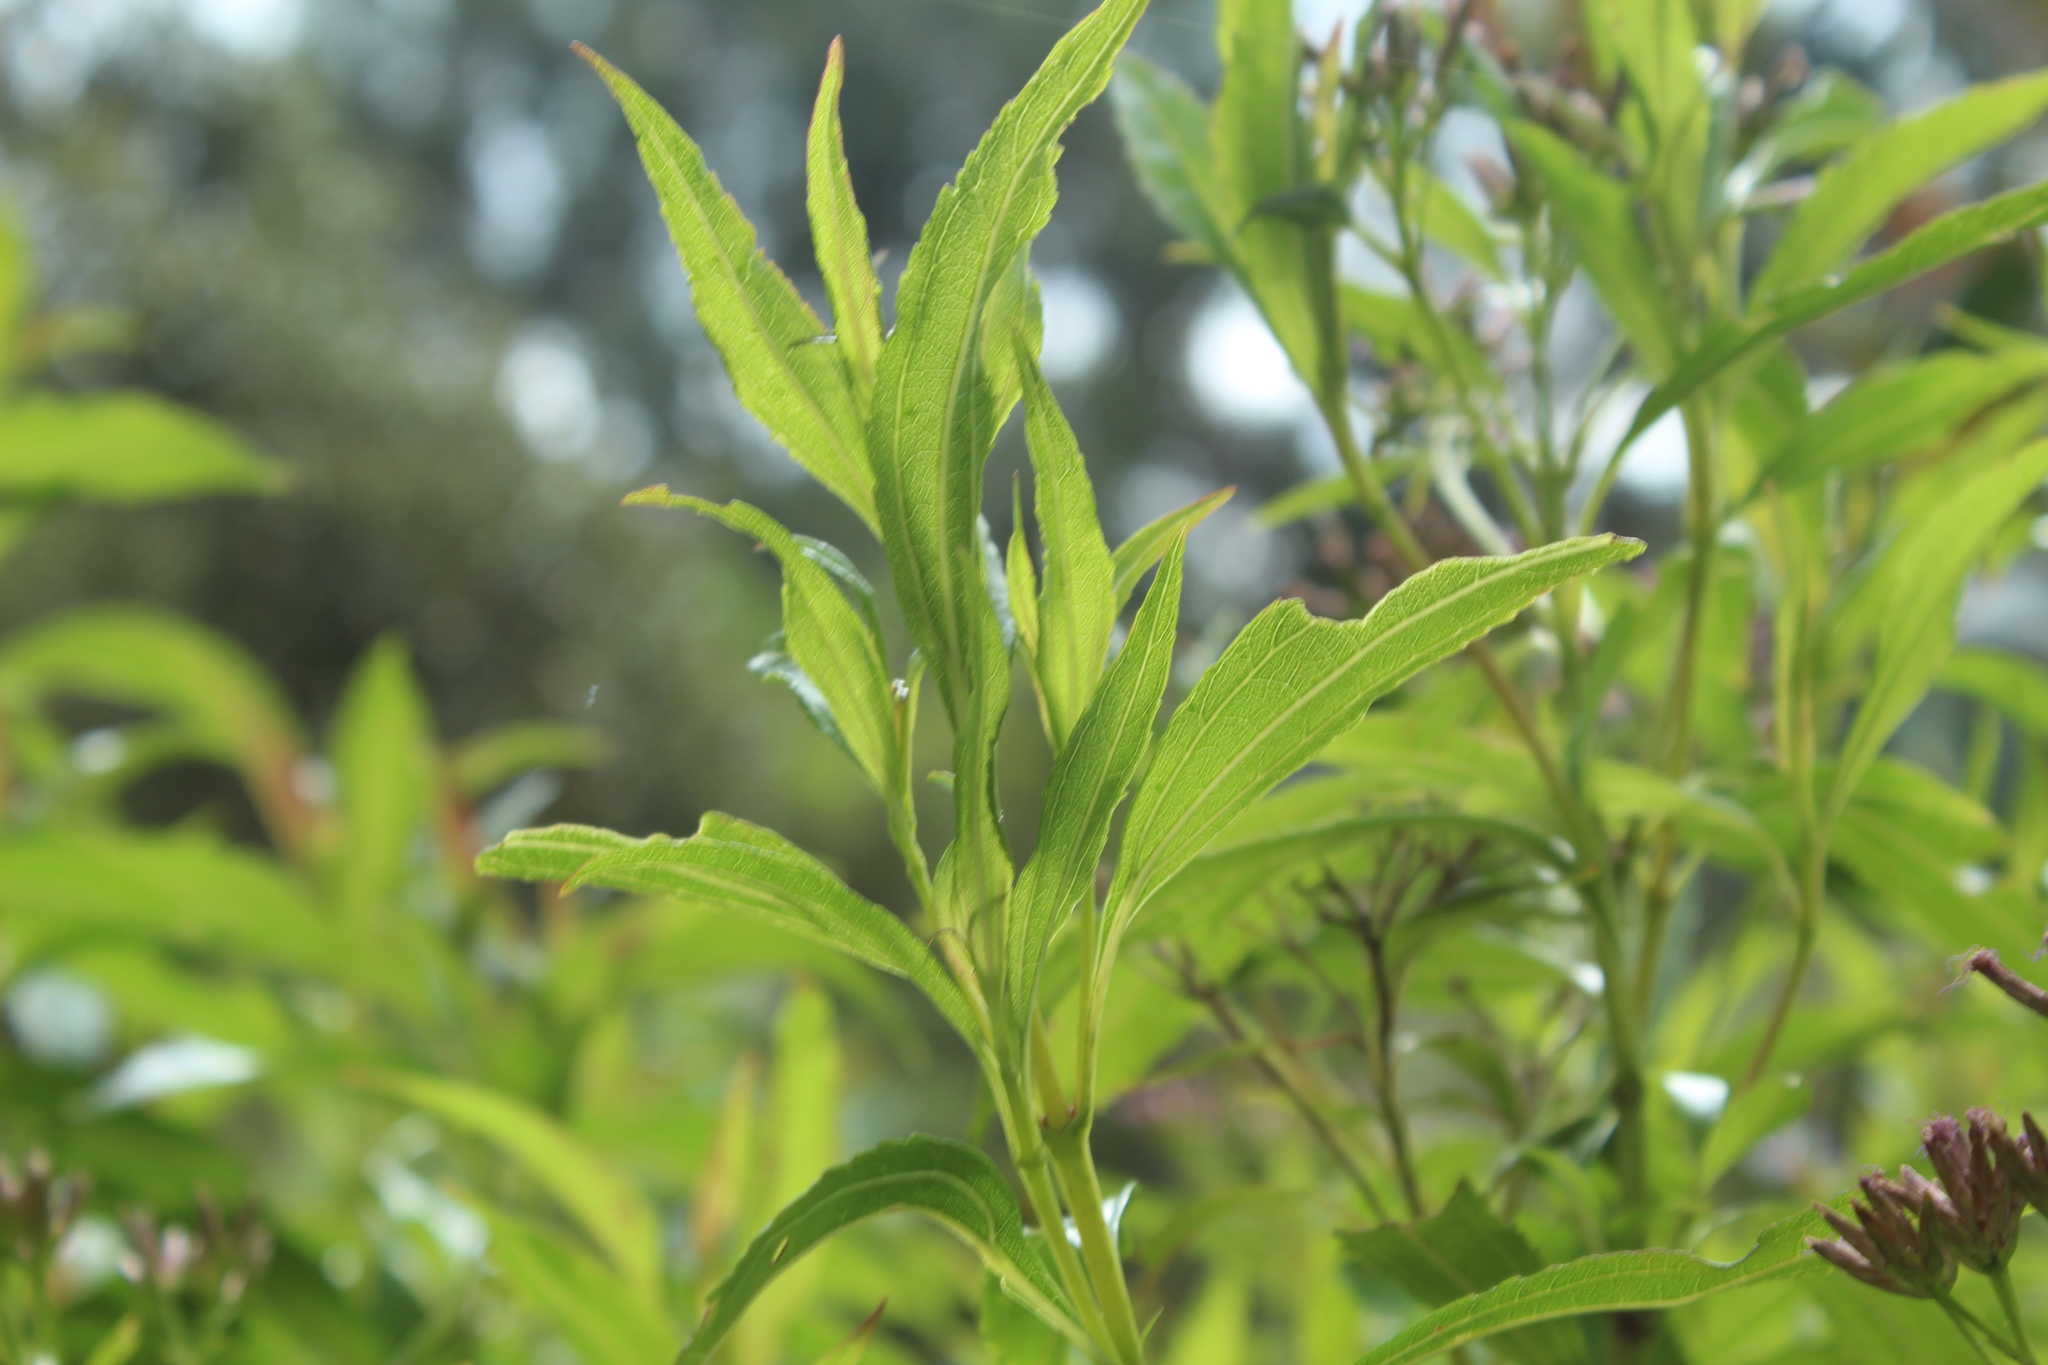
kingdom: Plantae
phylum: Tracheophyta
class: Magnoliopsida
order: Asterales
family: Asteraceae
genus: Chromolaena
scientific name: Chromolaena perglabra
